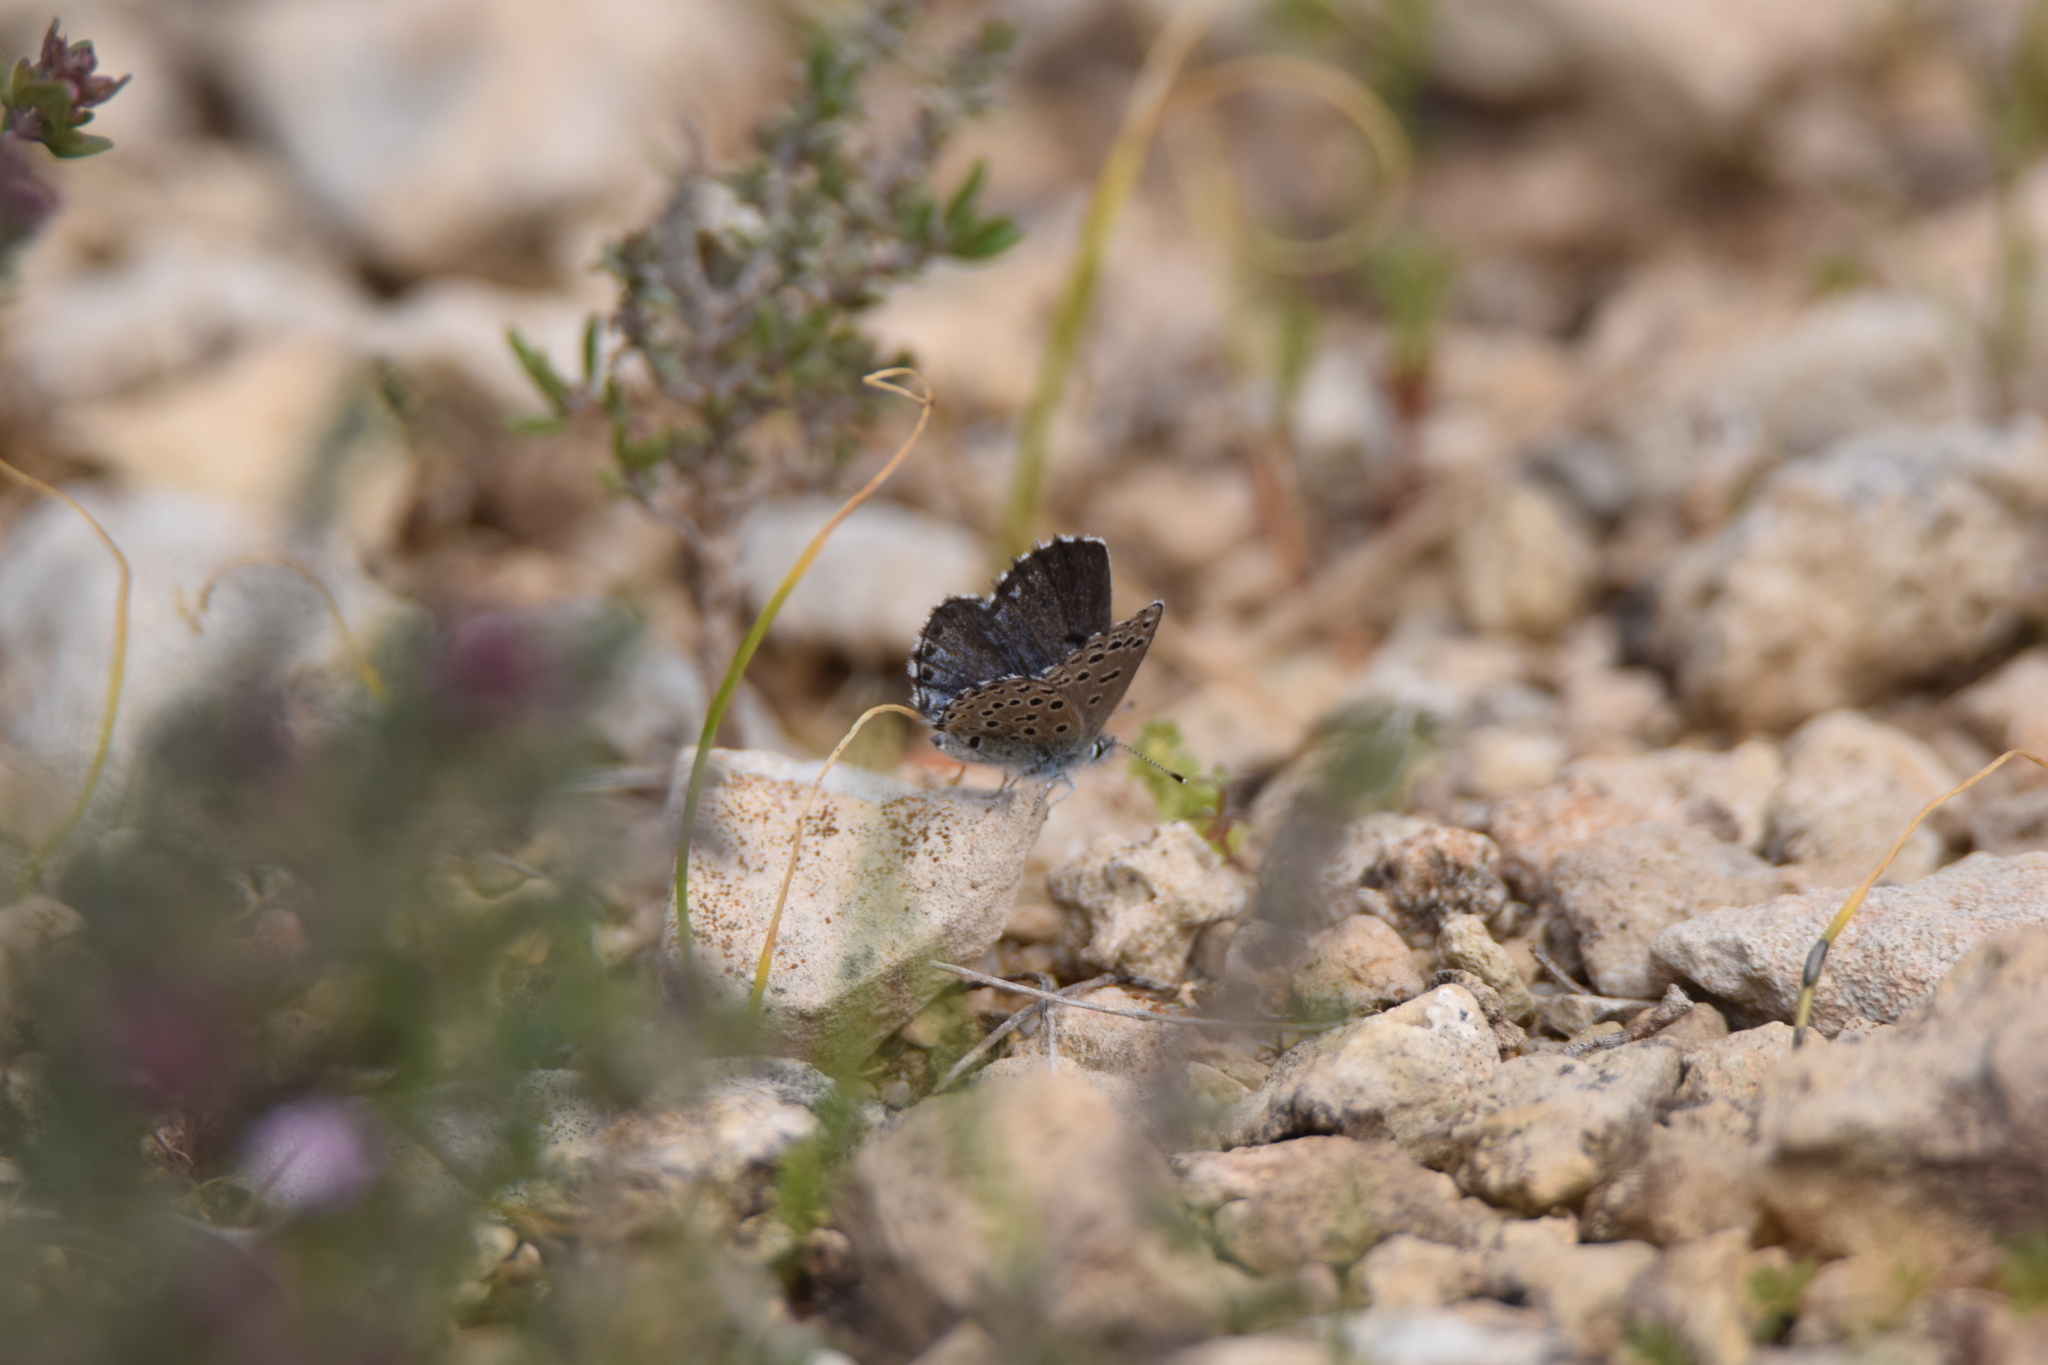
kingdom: Animalia
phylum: Arthropoda
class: Insecta
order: Lepidoptera
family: Lycaenidae
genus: Pseudophilotes
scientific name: Pseudophilotes baton
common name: Baton blue
